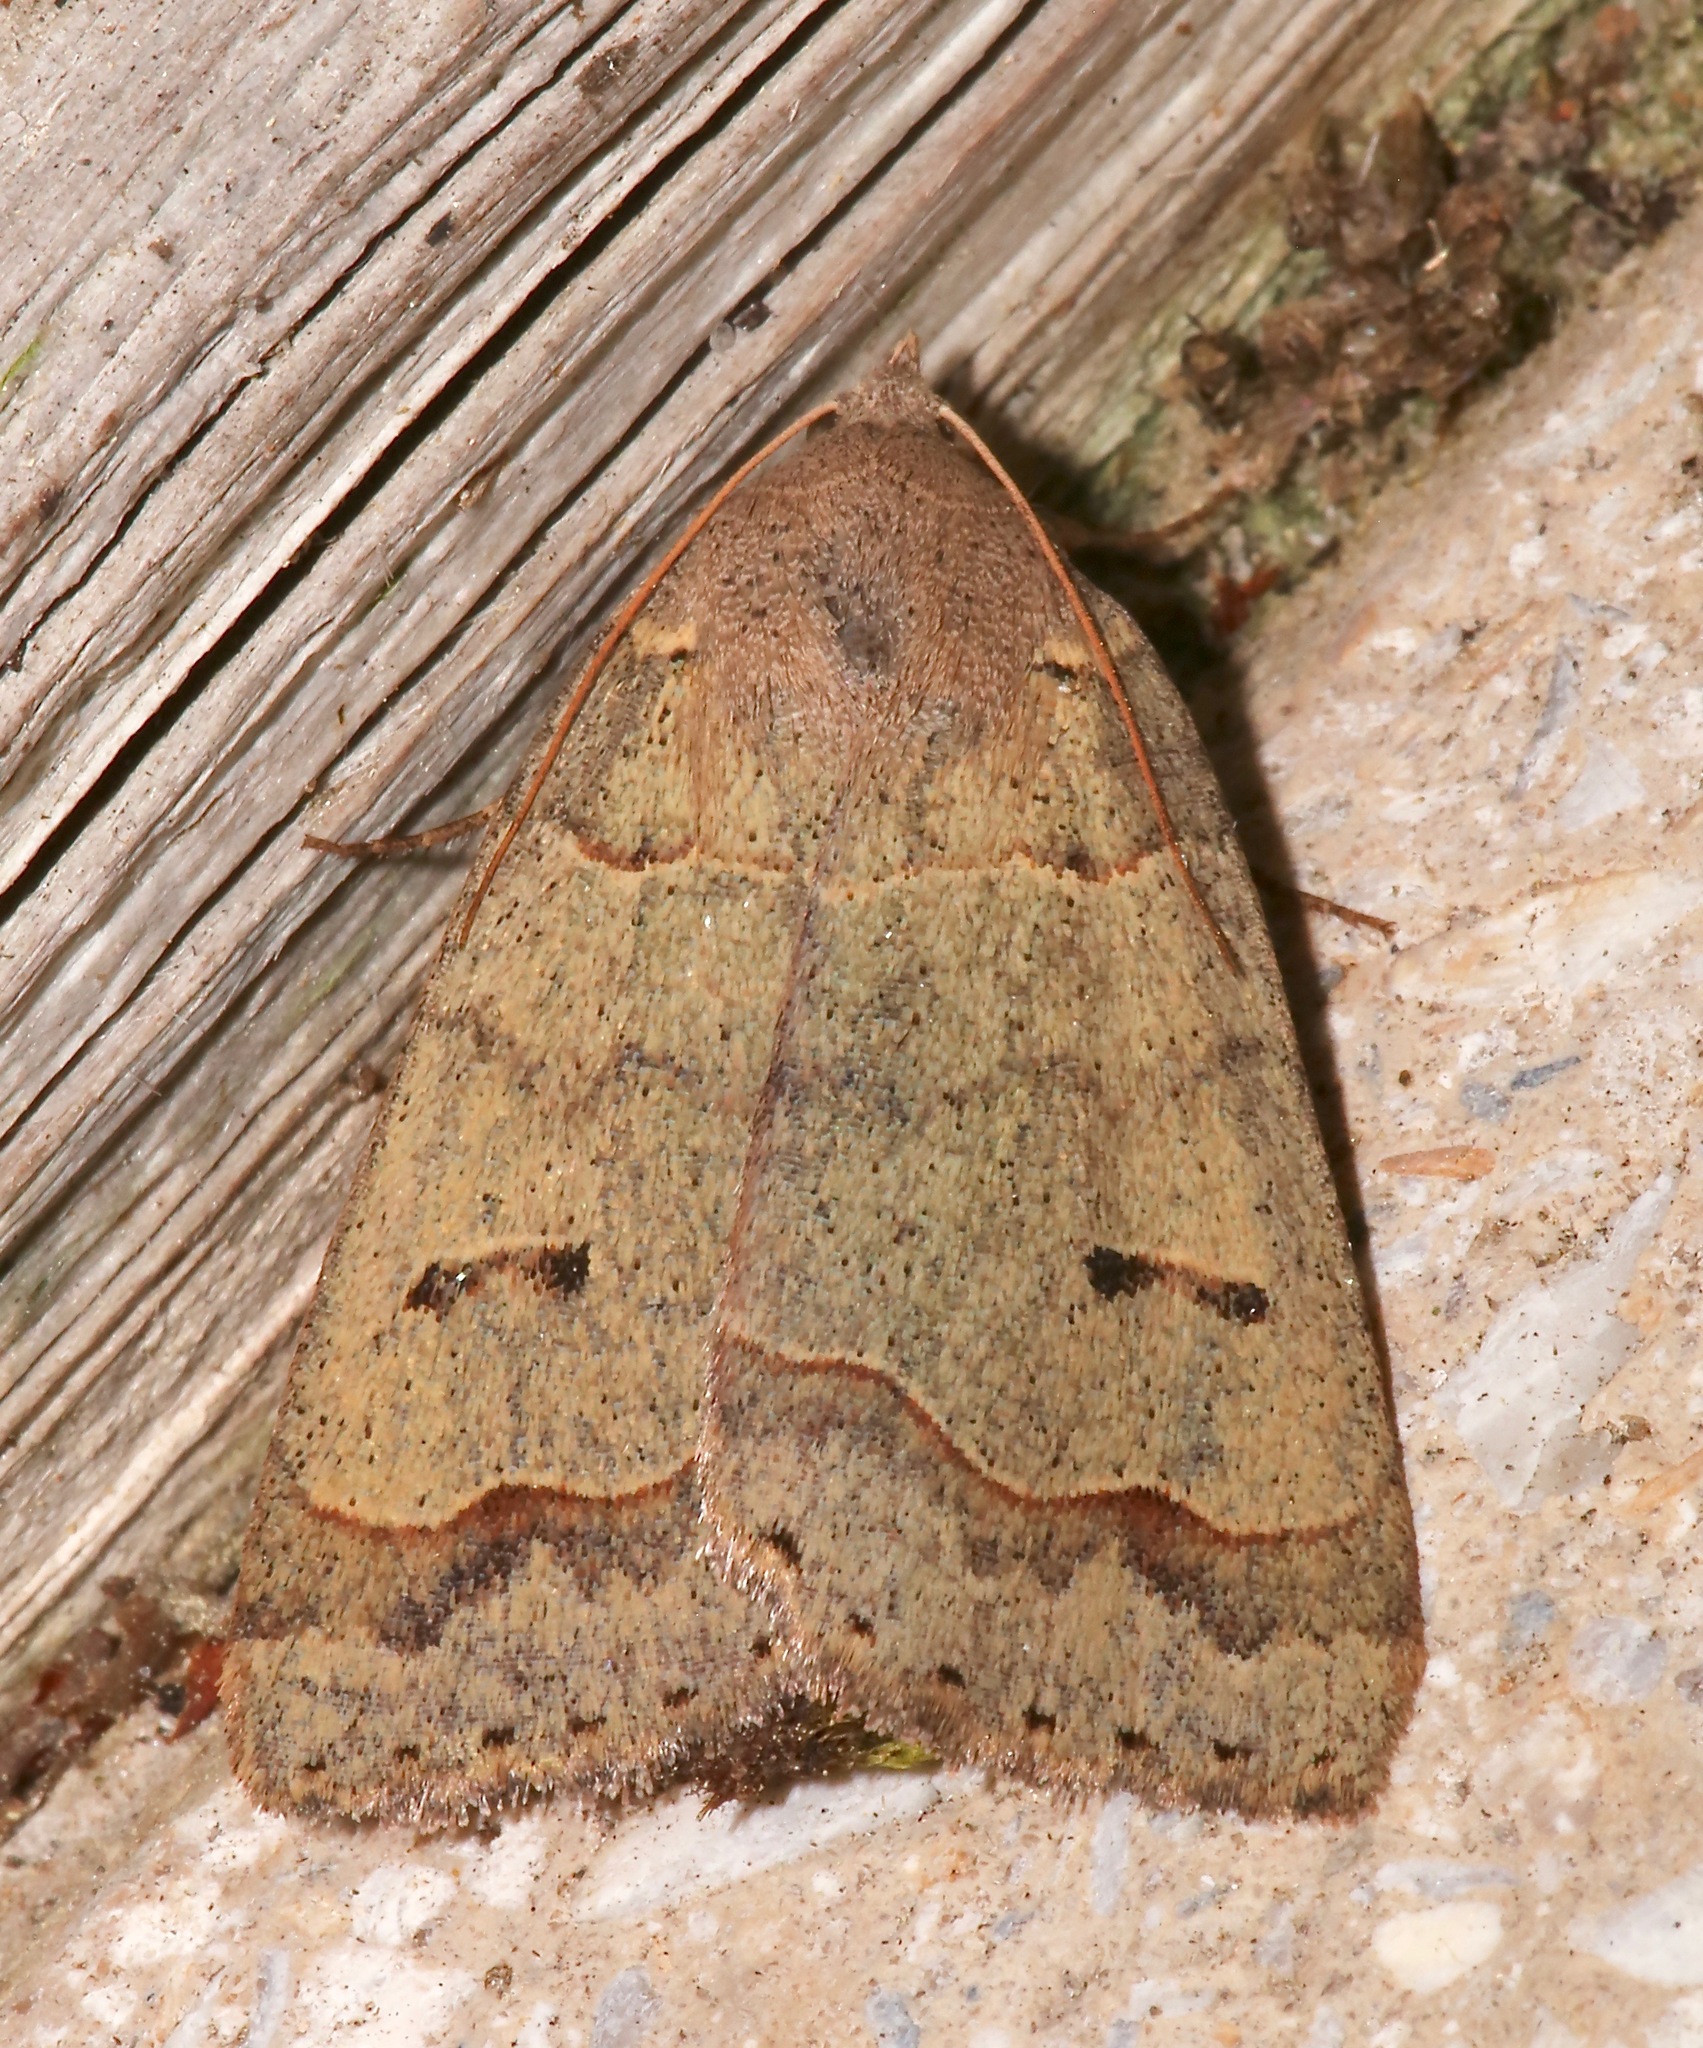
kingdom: Animalia
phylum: Arthropoda
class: Insecta
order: Lepidoptera
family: Erebidae
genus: Phoberia
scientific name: Phoberia atomaris
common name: Common oak moth
